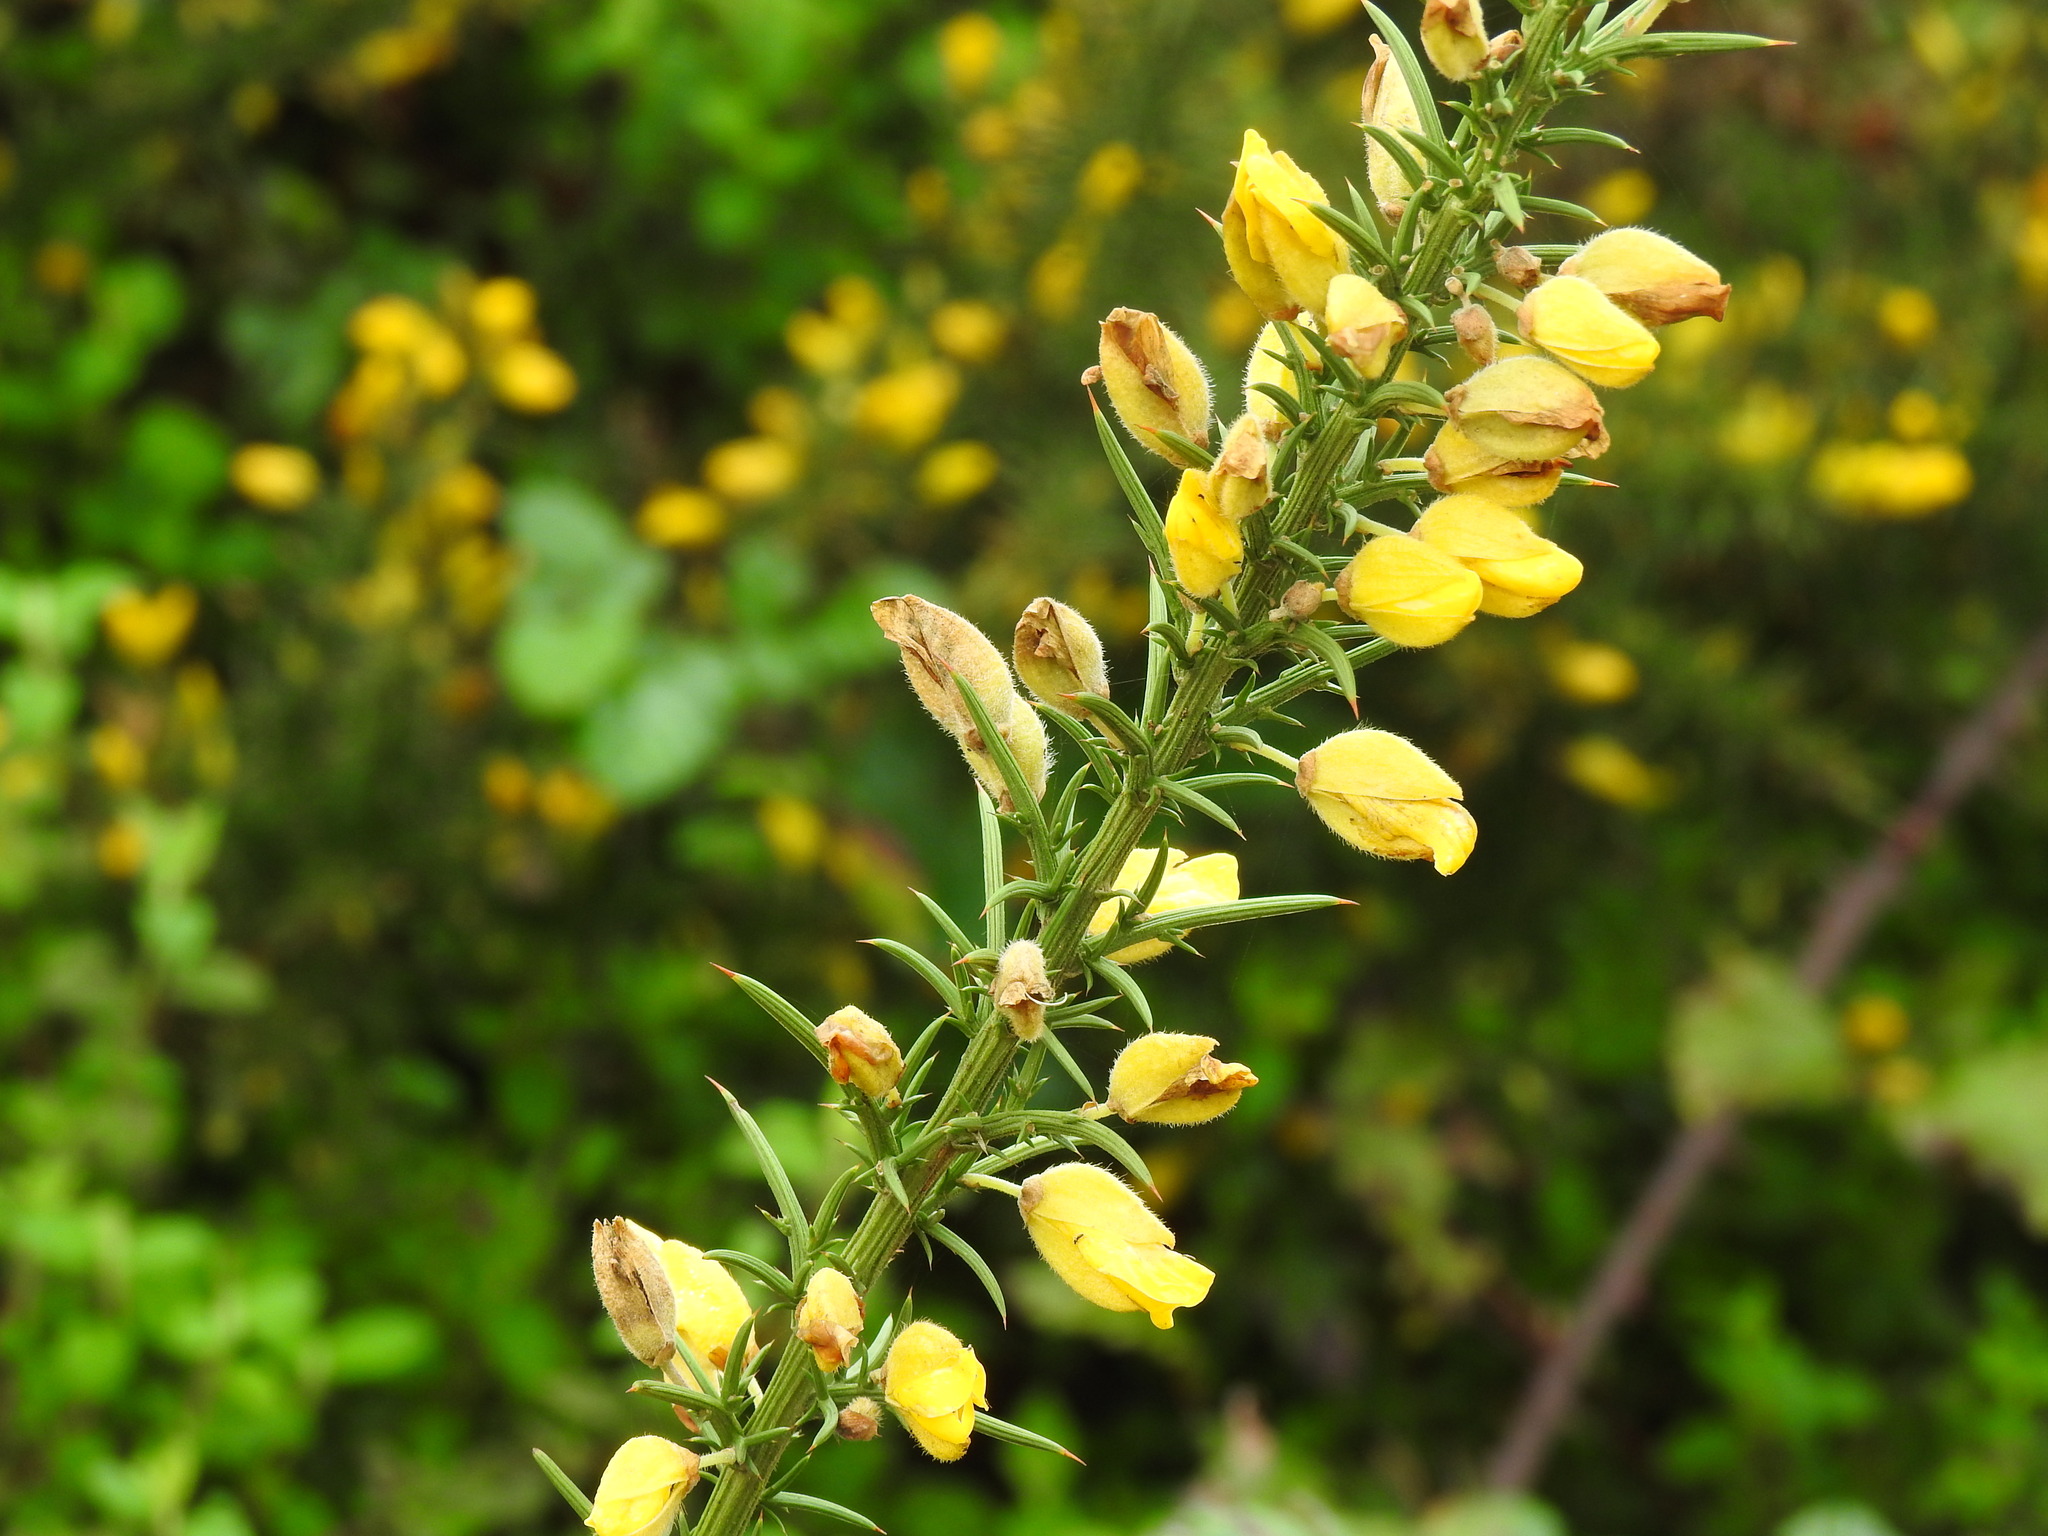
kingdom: Plantae
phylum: Tracheophyta
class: Magnoliopsida
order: Fabales
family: Fabaceae
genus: Ulex
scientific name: Ulex europaeus
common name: Common gorse
